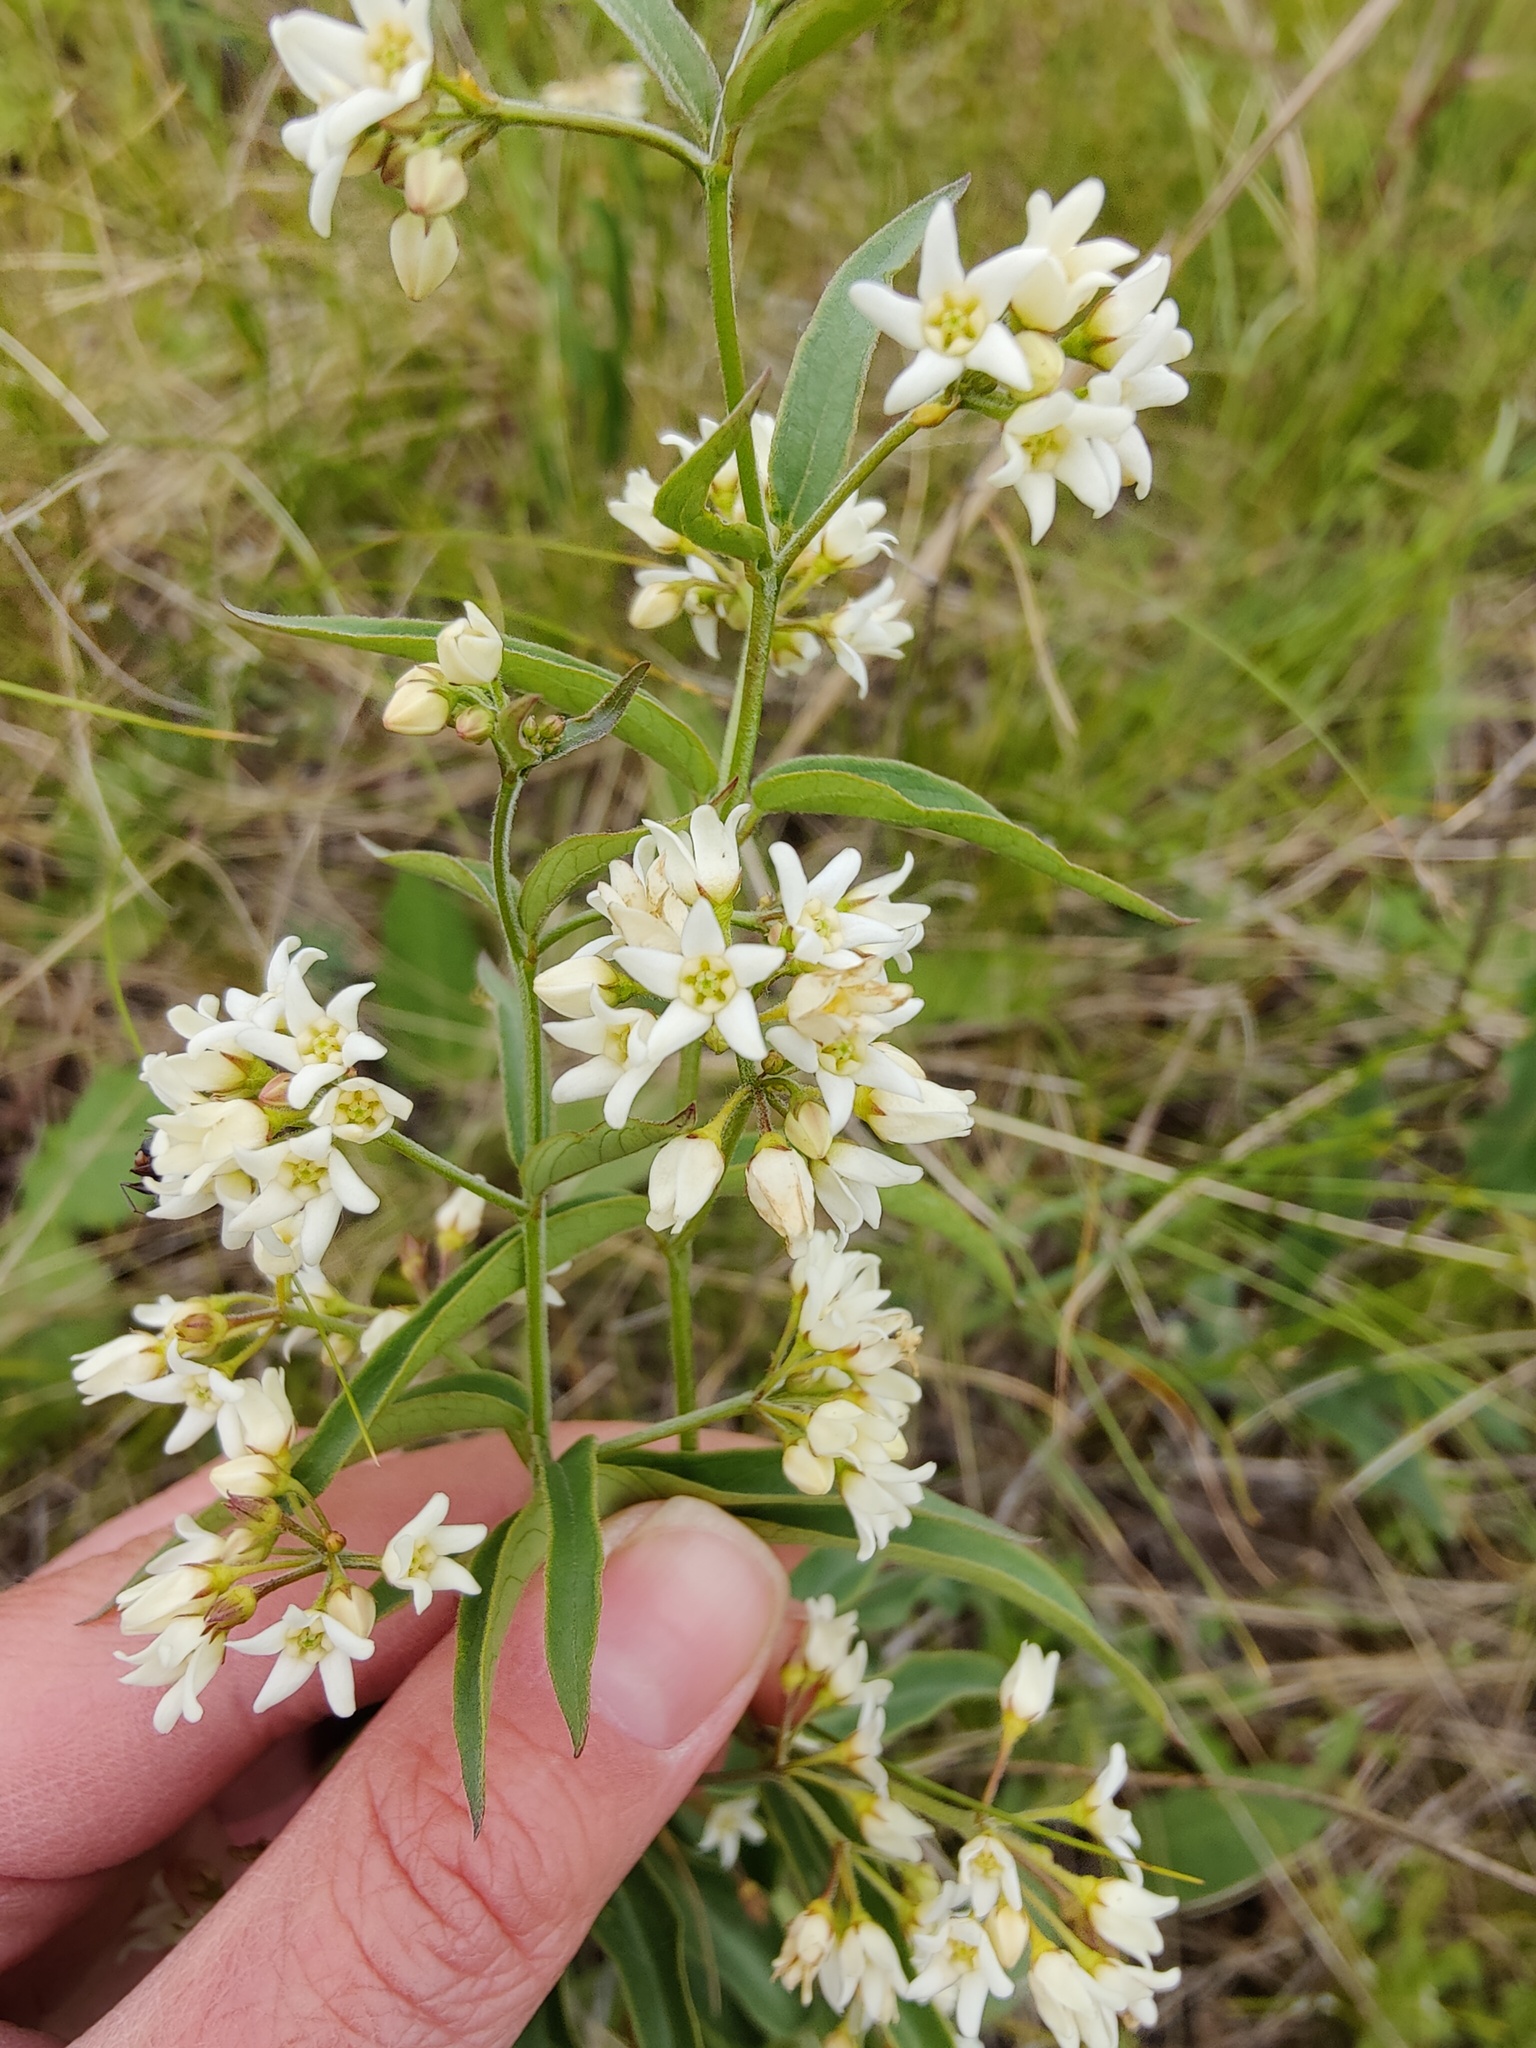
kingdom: Plantae
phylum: Tracheophyta
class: Magnoliopsida
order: Gentianales
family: Apocynaceae
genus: Vincetoxicum
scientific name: Vincetoxicum hirundinaria
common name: White swallowwort
